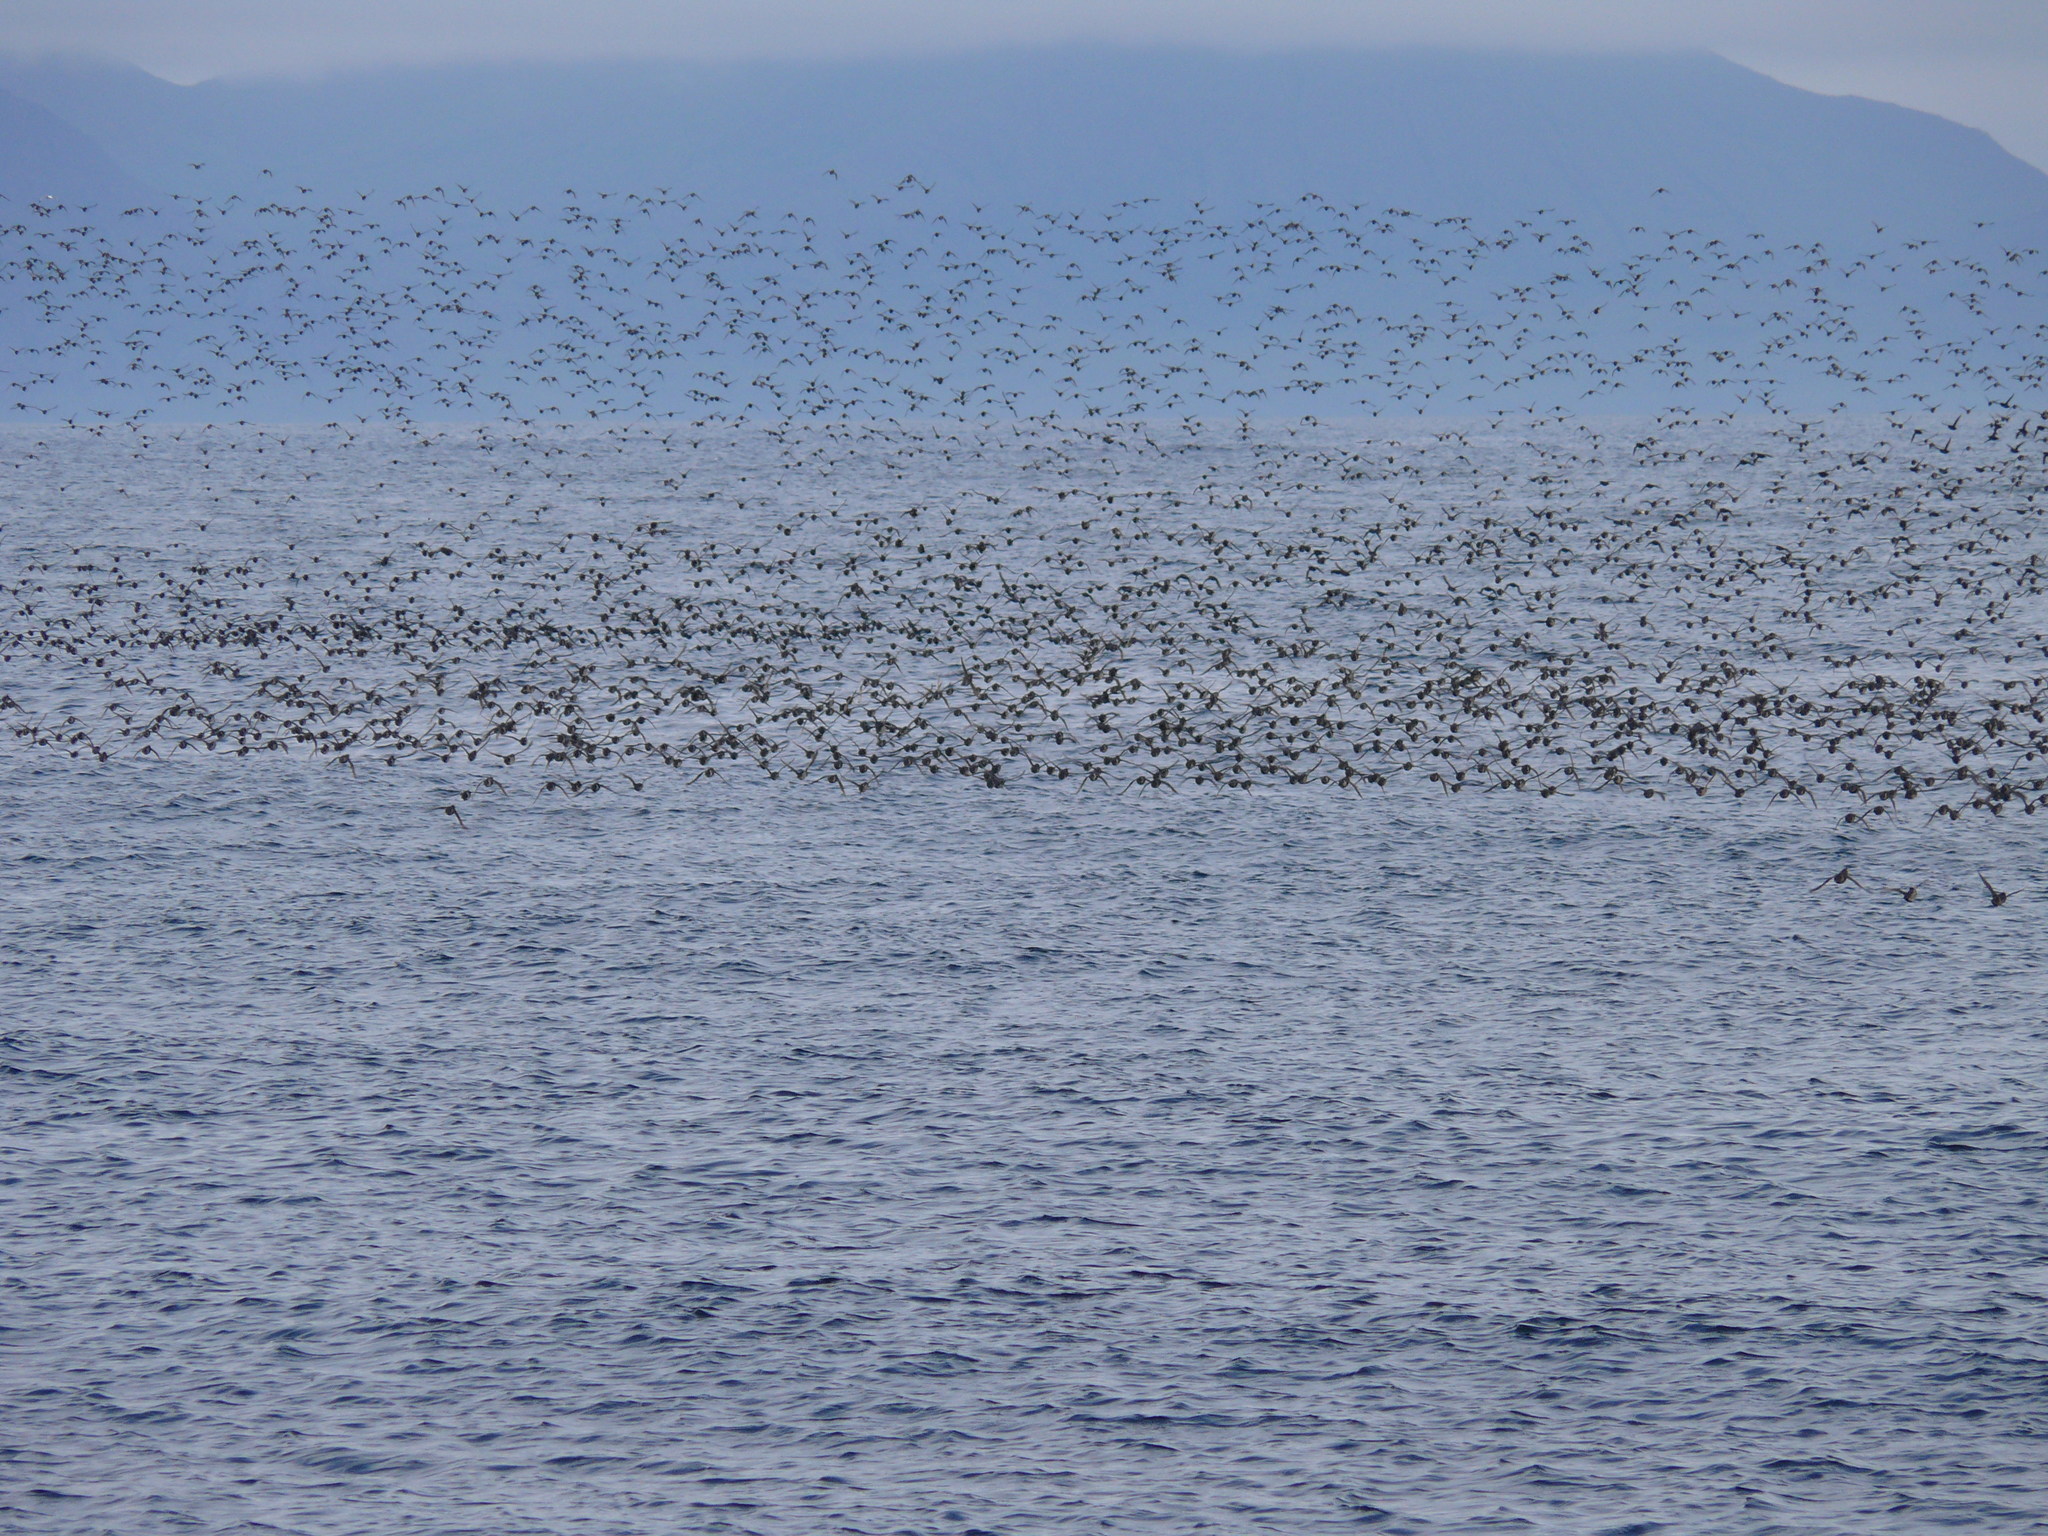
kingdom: Animalia
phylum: Chordata
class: Aves
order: Charadriiformes
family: Alcidae
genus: Aethia
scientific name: Aethia psittacula
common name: Parakeet auklet
